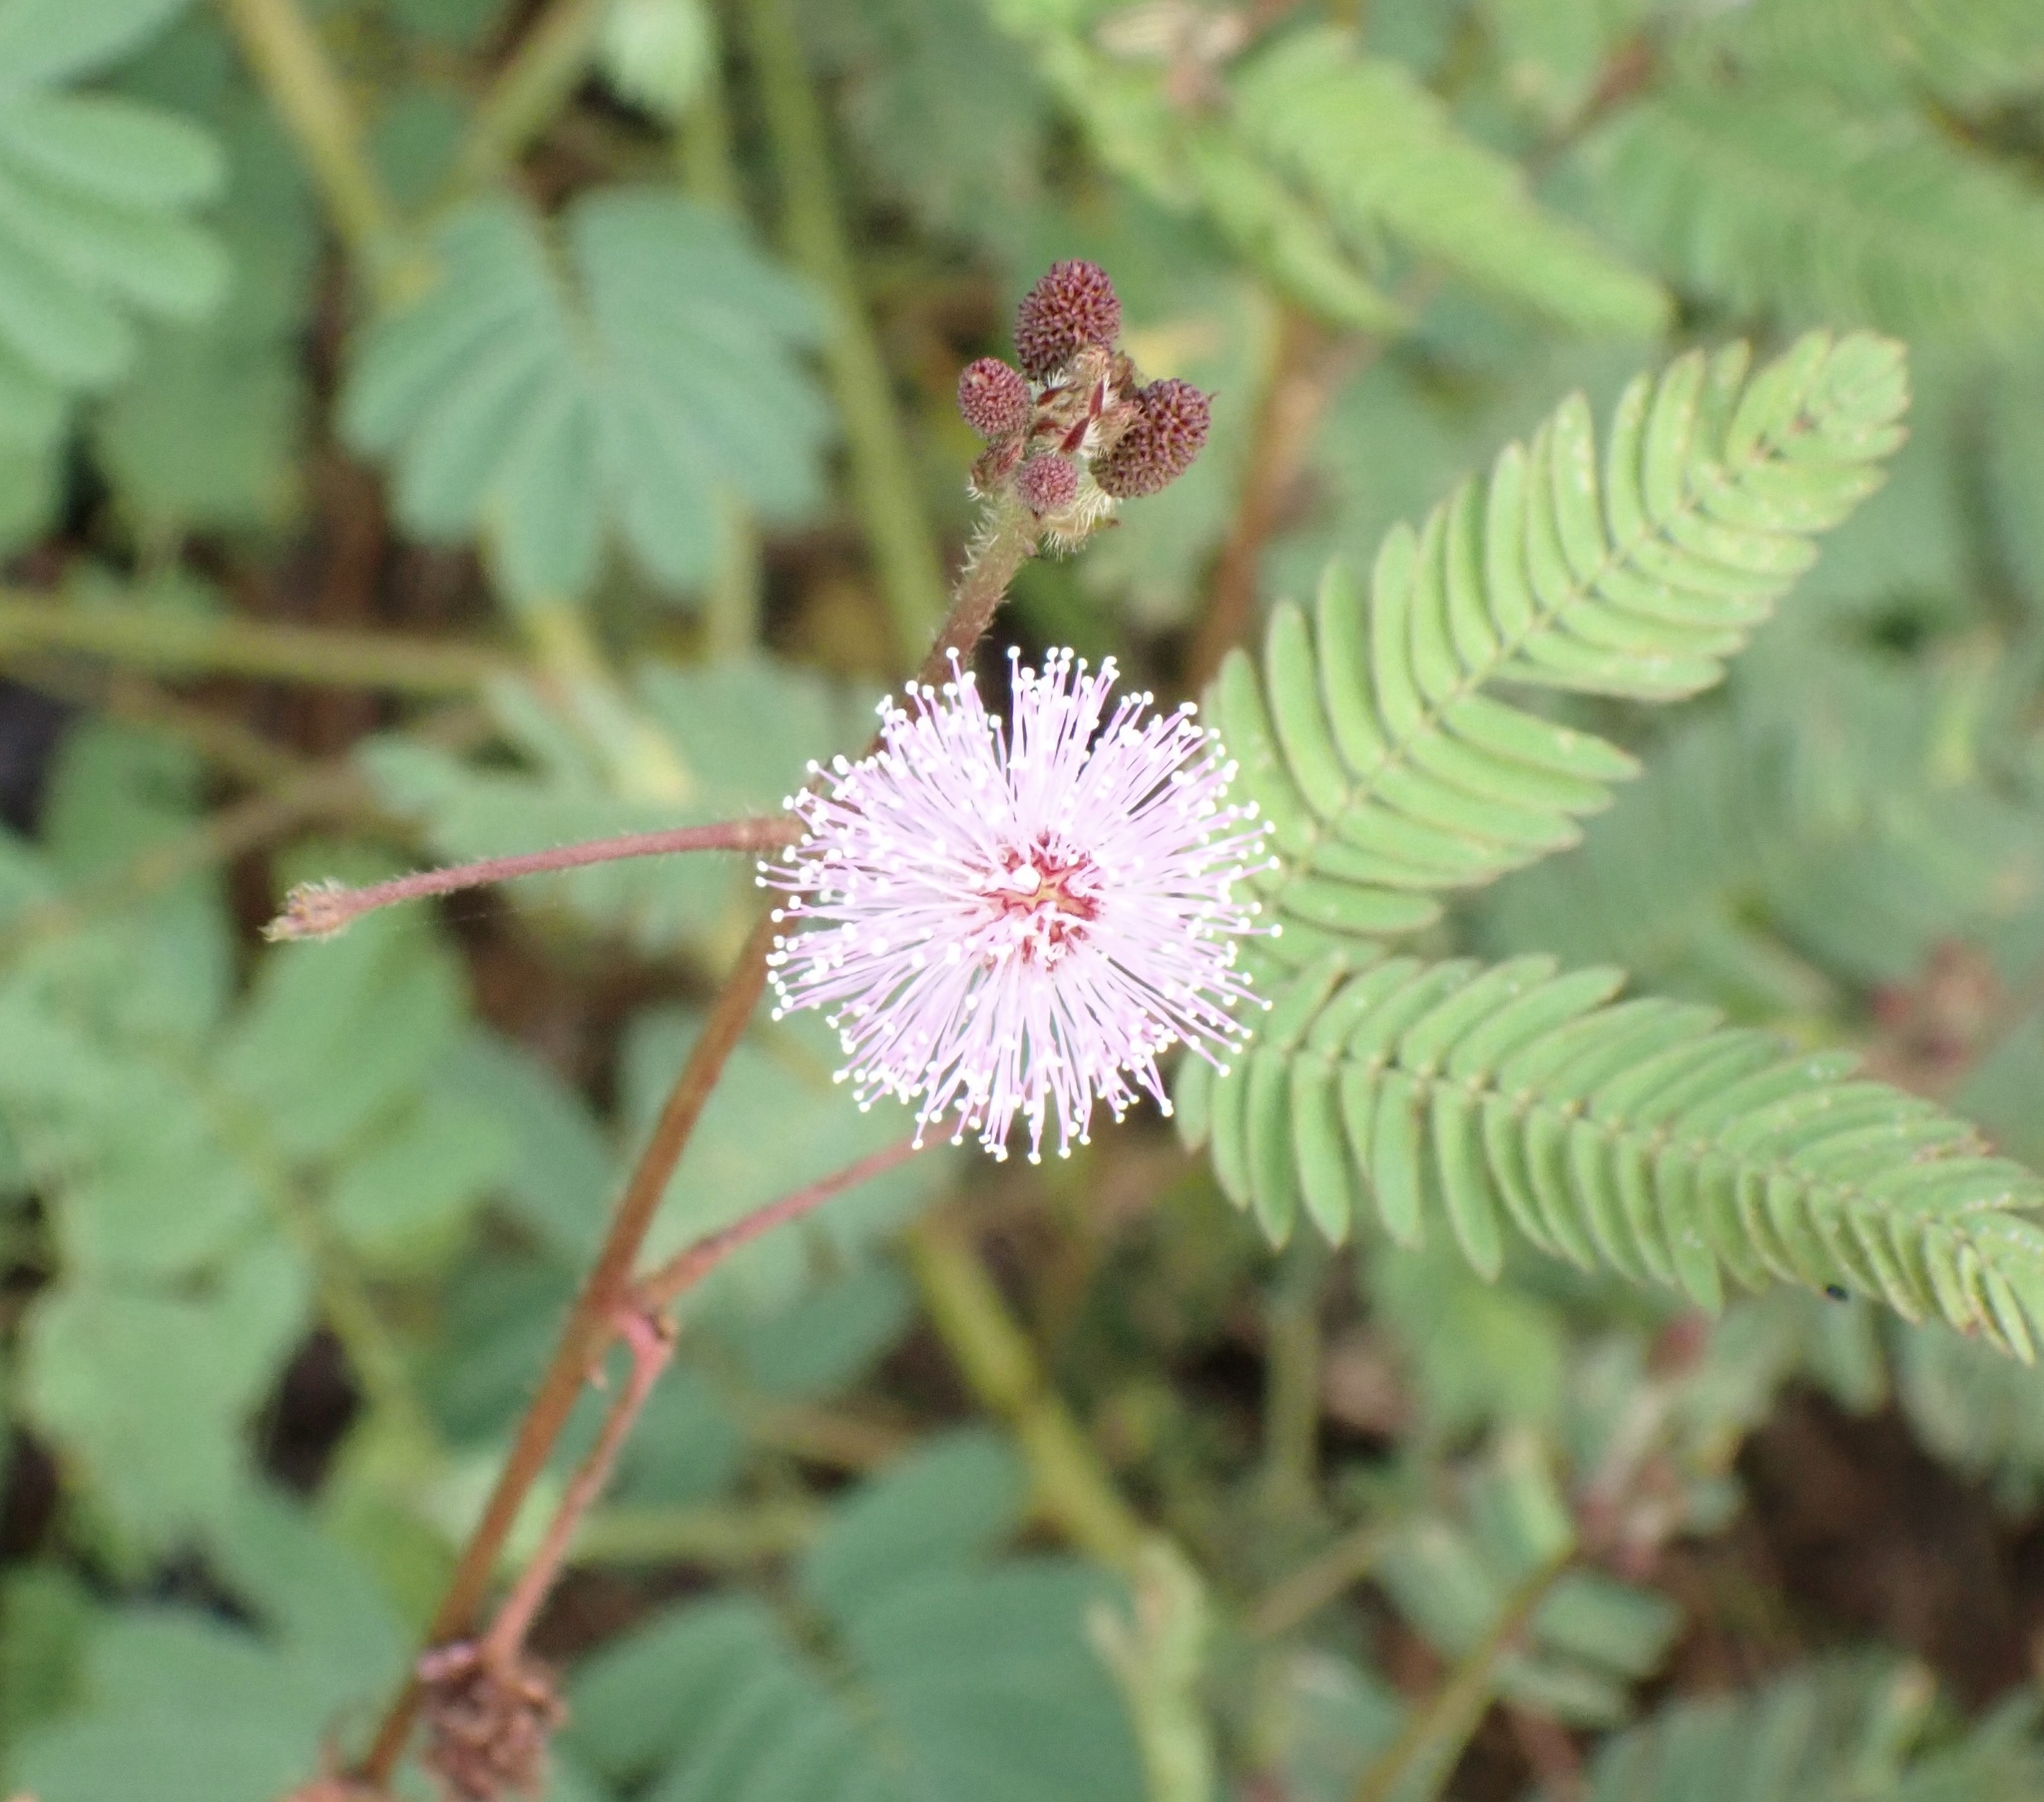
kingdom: Plantae
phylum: Tracheophyta
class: Magnoliopsida
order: Fabales
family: Fabaceae
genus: Mimosa
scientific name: Mimosa pudica
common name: Sensitive plant
